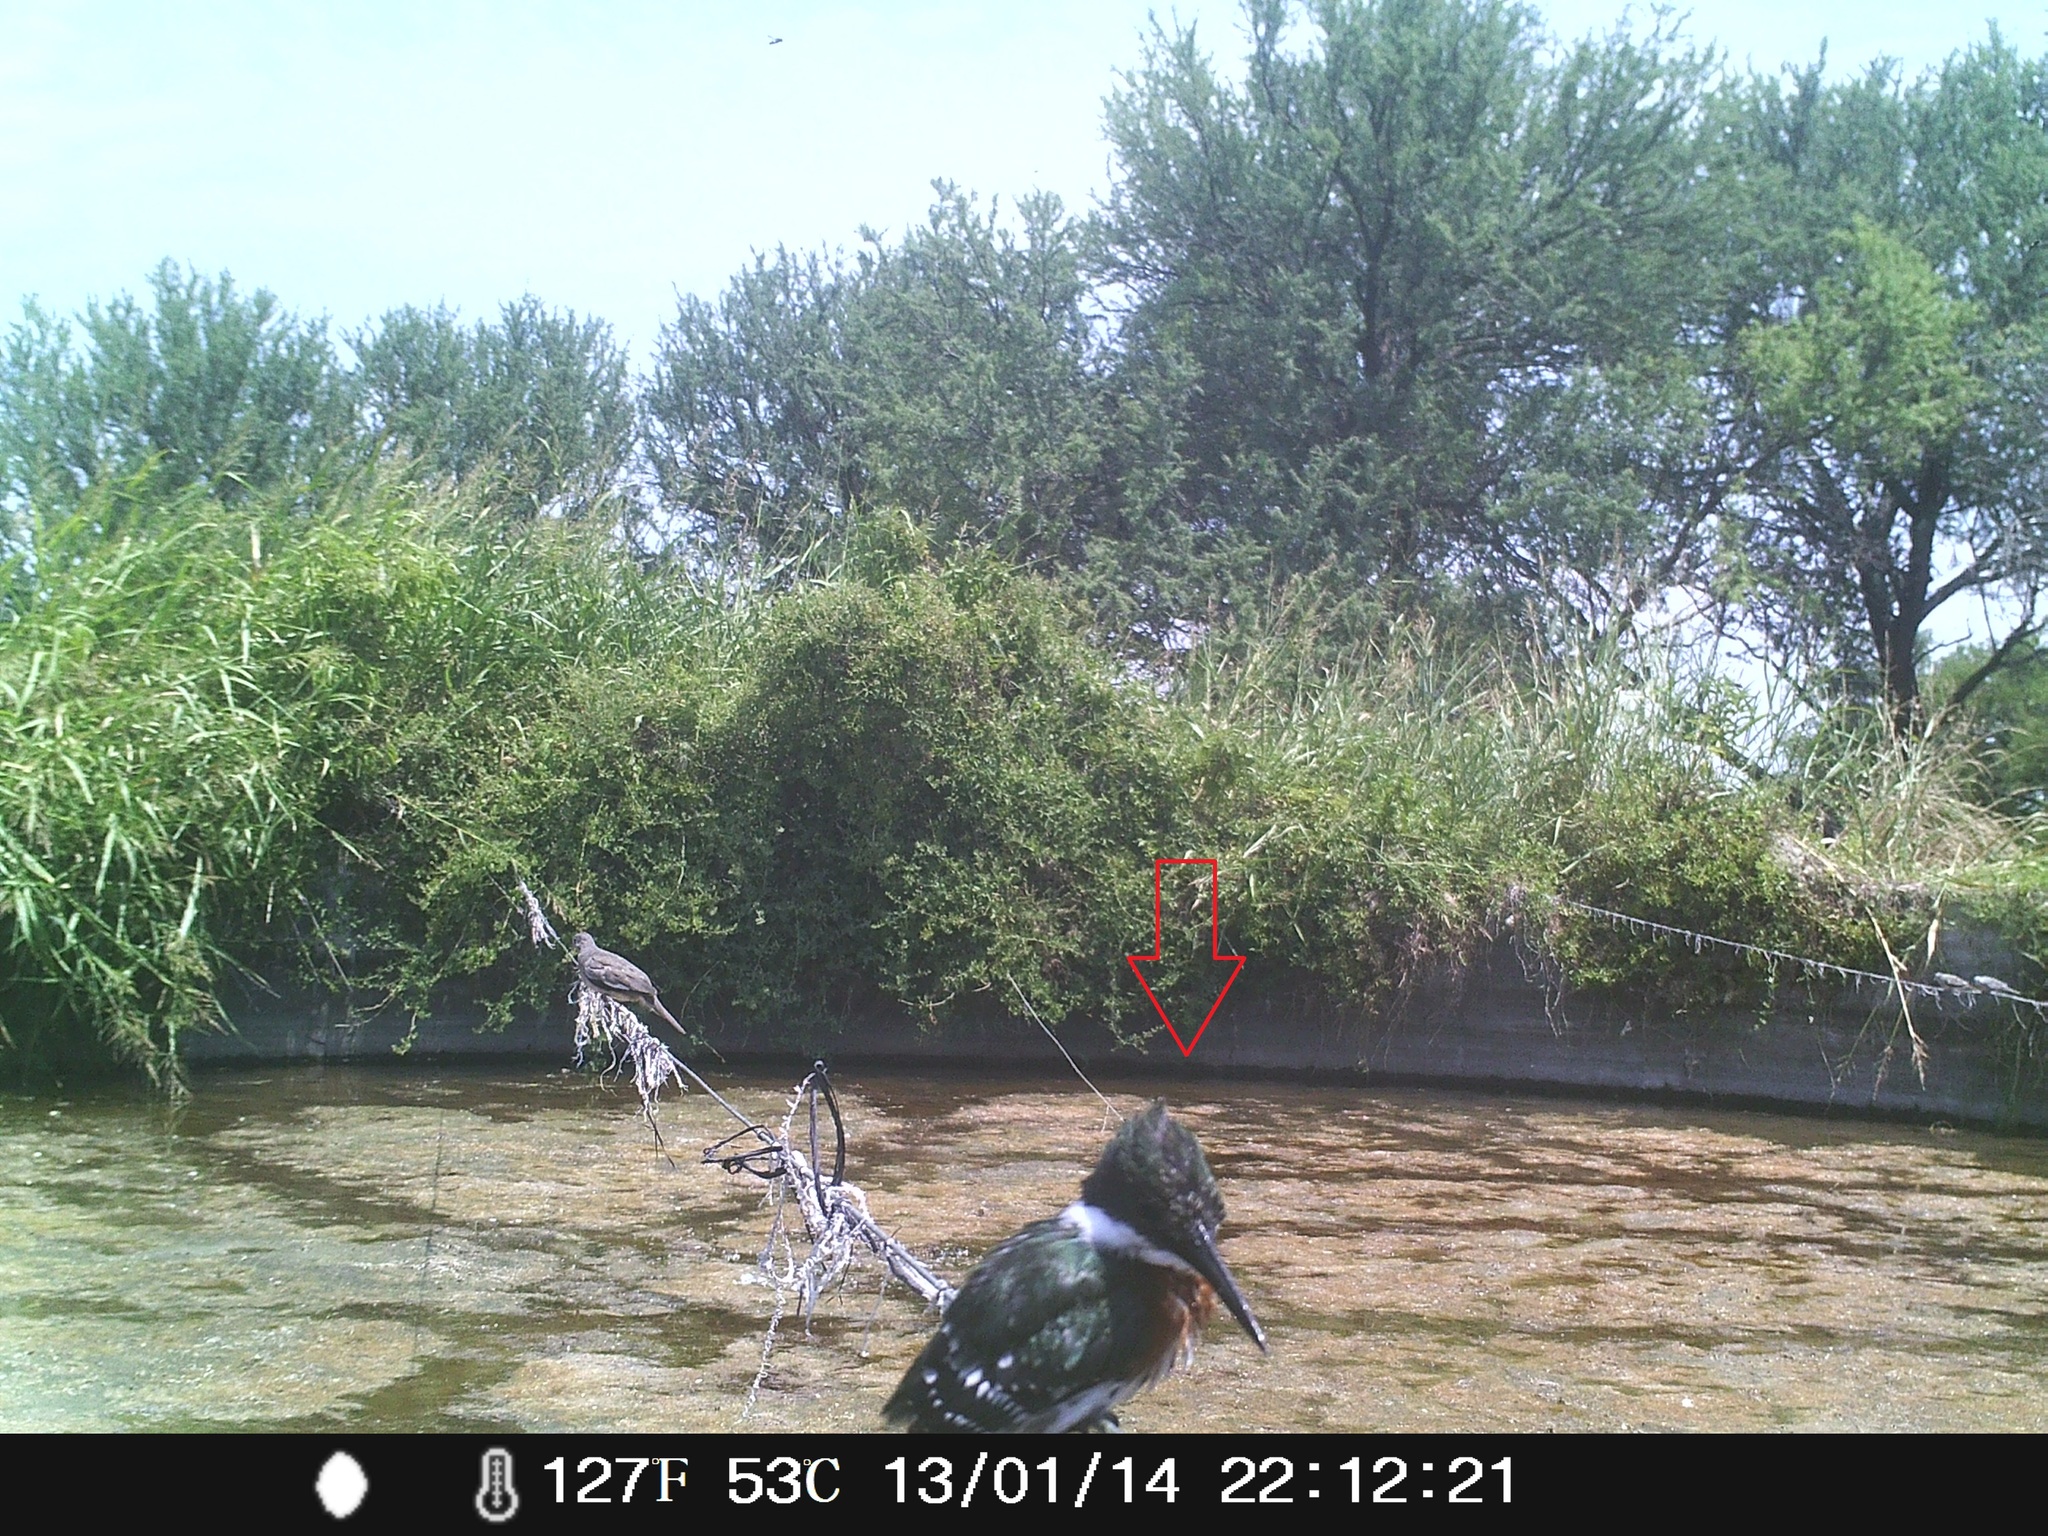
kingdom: Animalia
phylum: Chordata
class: Aves
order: Coraciiformes
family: Alcedinidae
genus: Chloroceryle
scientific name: Chloroceryle americana
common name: Green kingfisher
